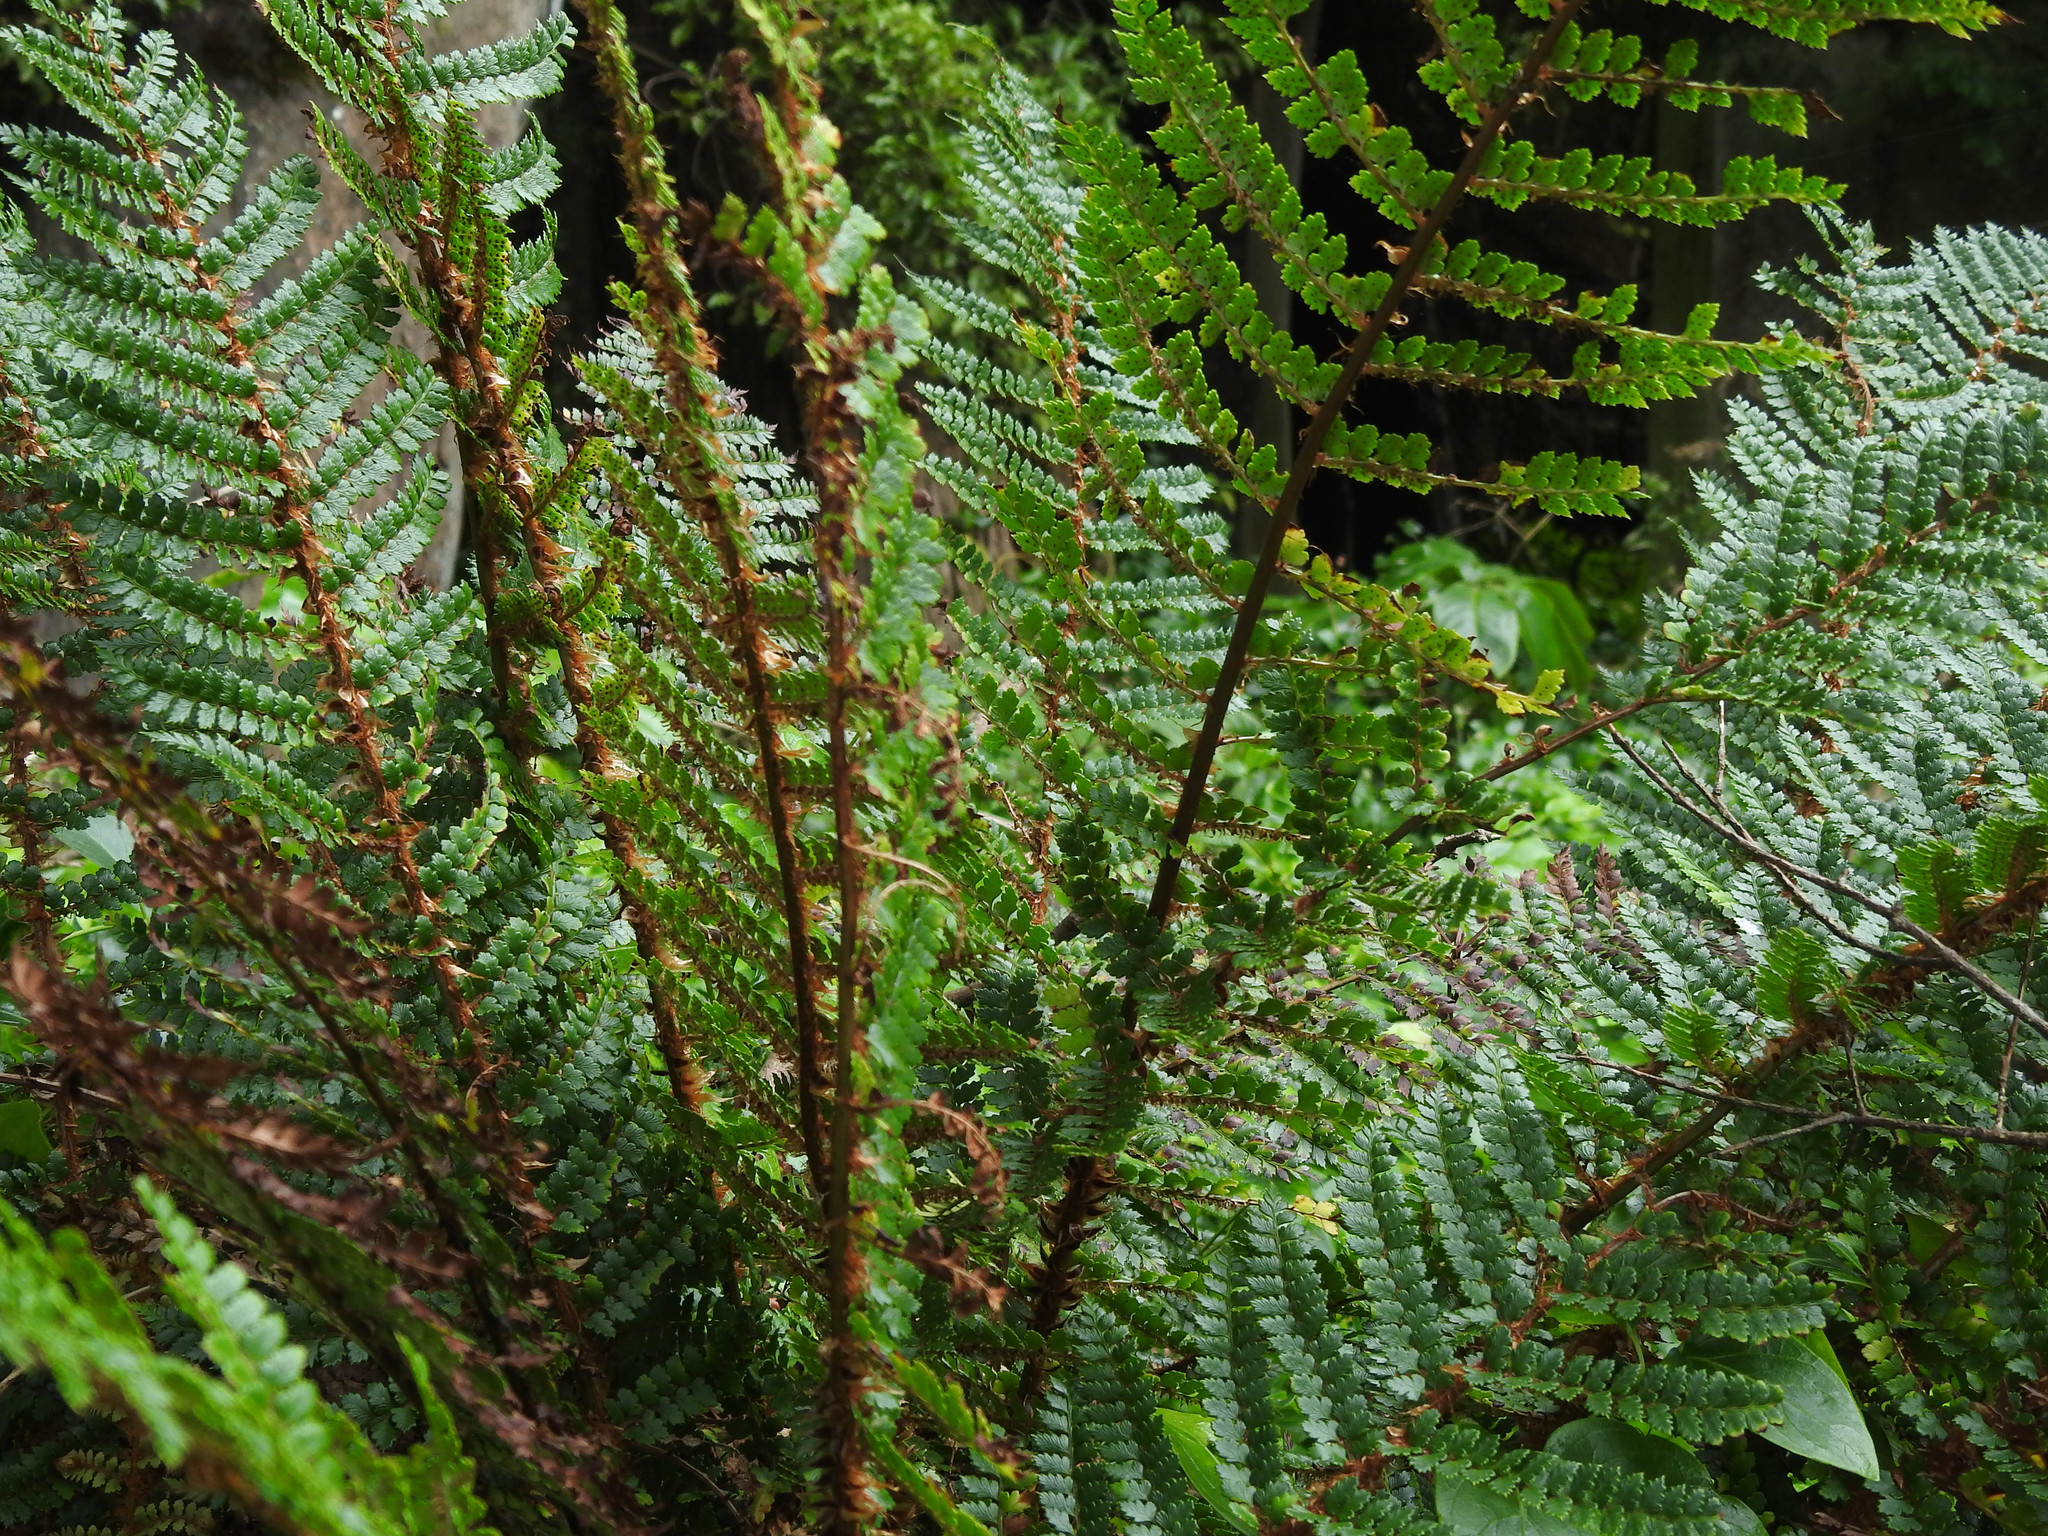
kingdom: Plantae
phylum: Tracheophyta
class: Polypodiopsida
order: Polypodiales
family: Dryopteridaceae
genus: Polystichum
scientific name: Polystichum vestitum
